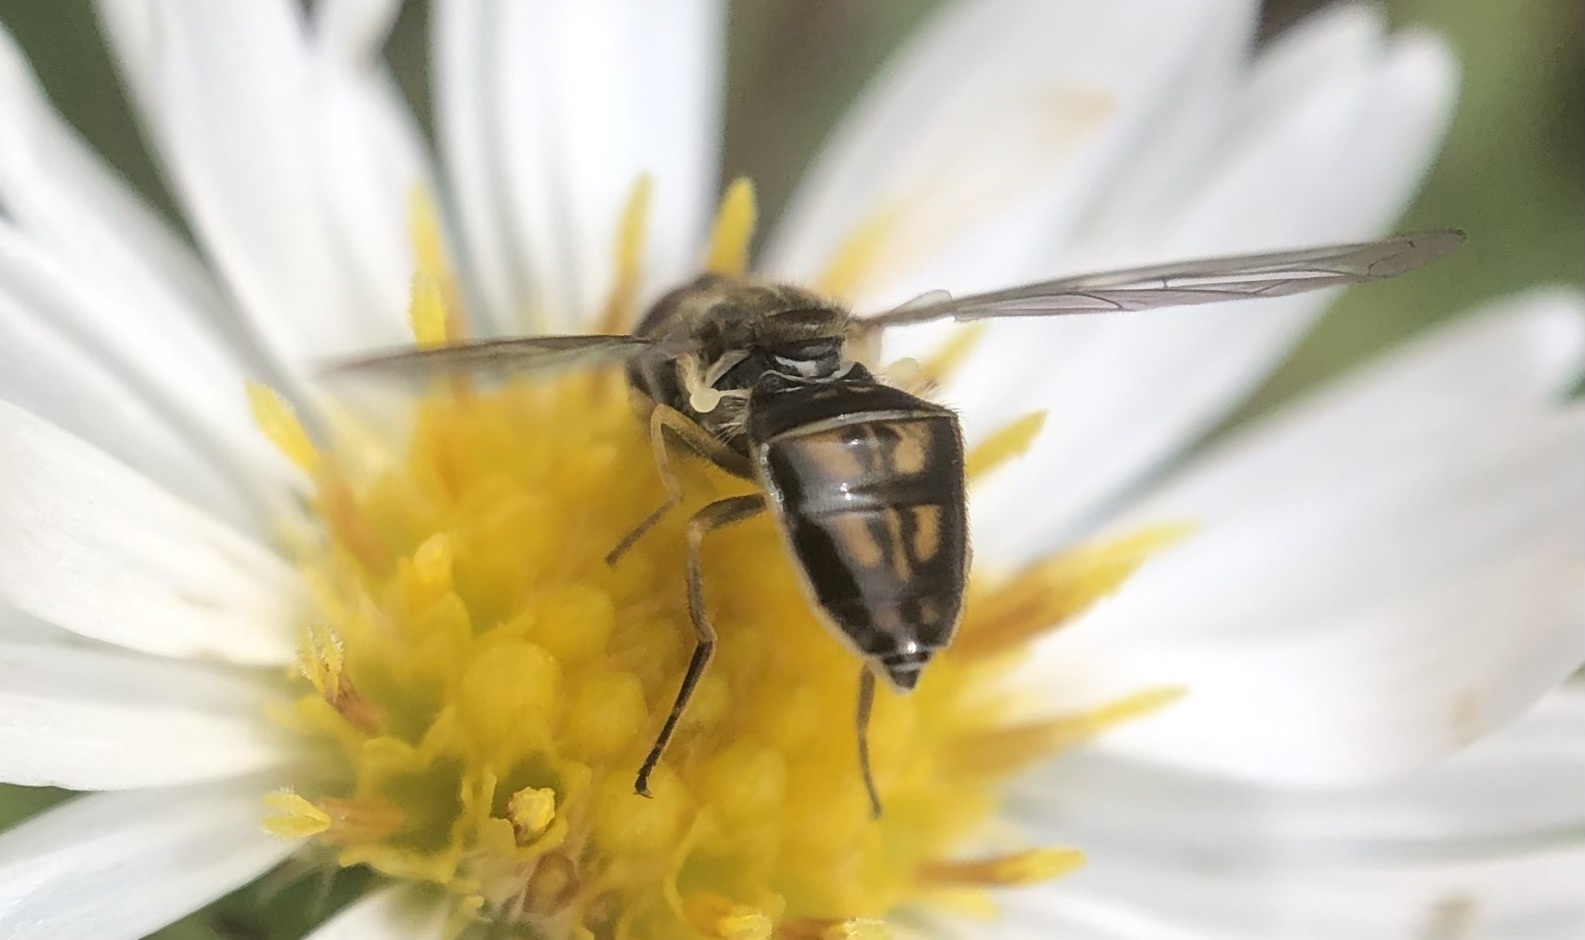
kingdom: Animalia
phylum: Arthropoda
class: Insecta
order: Diptera
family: Syrphidae
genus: Toxomerus
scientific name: Toxomerus marginatus
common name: Syrphid fly
